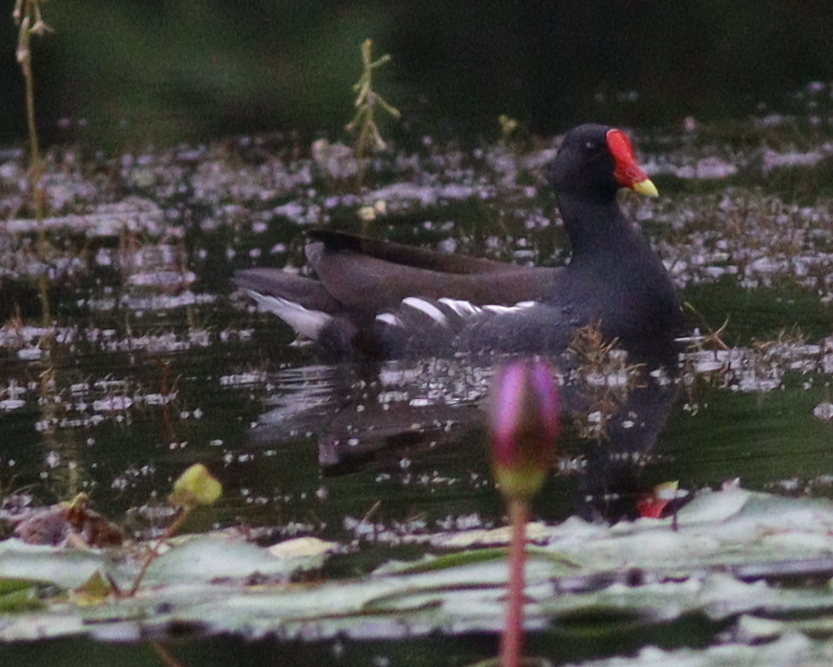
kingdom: Animalia
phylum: Chordata
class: Aves
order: Gruiformes
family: Rallidae
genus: Gallinula
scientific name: Gallinula chloropus
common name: Common moorhen
